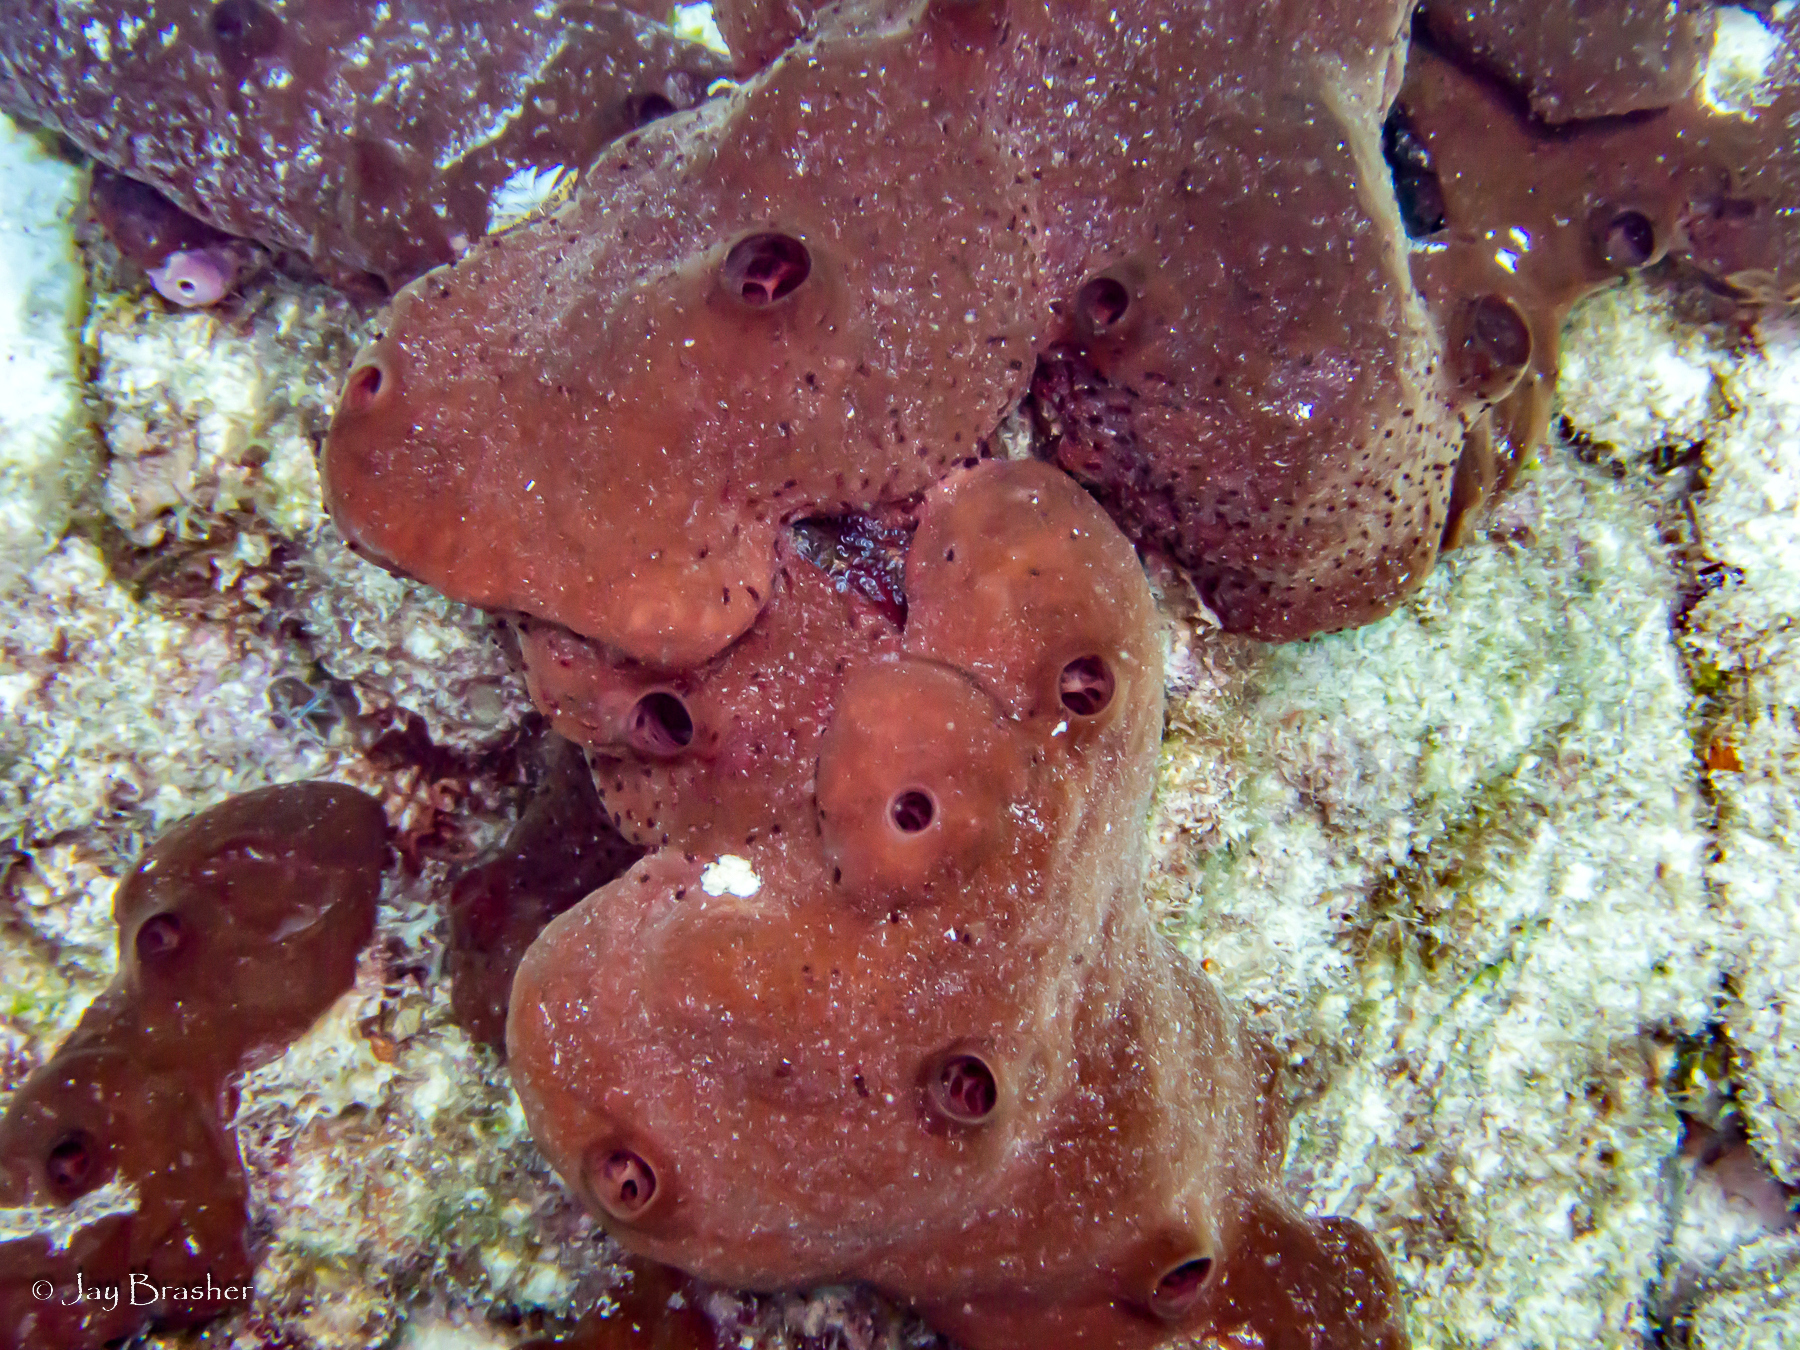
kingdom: Animalia
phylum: Porifera
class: Demospongiae
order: Scopalinida
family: Scopalinidae
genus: Svenzea
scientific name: Svenzea zeai
